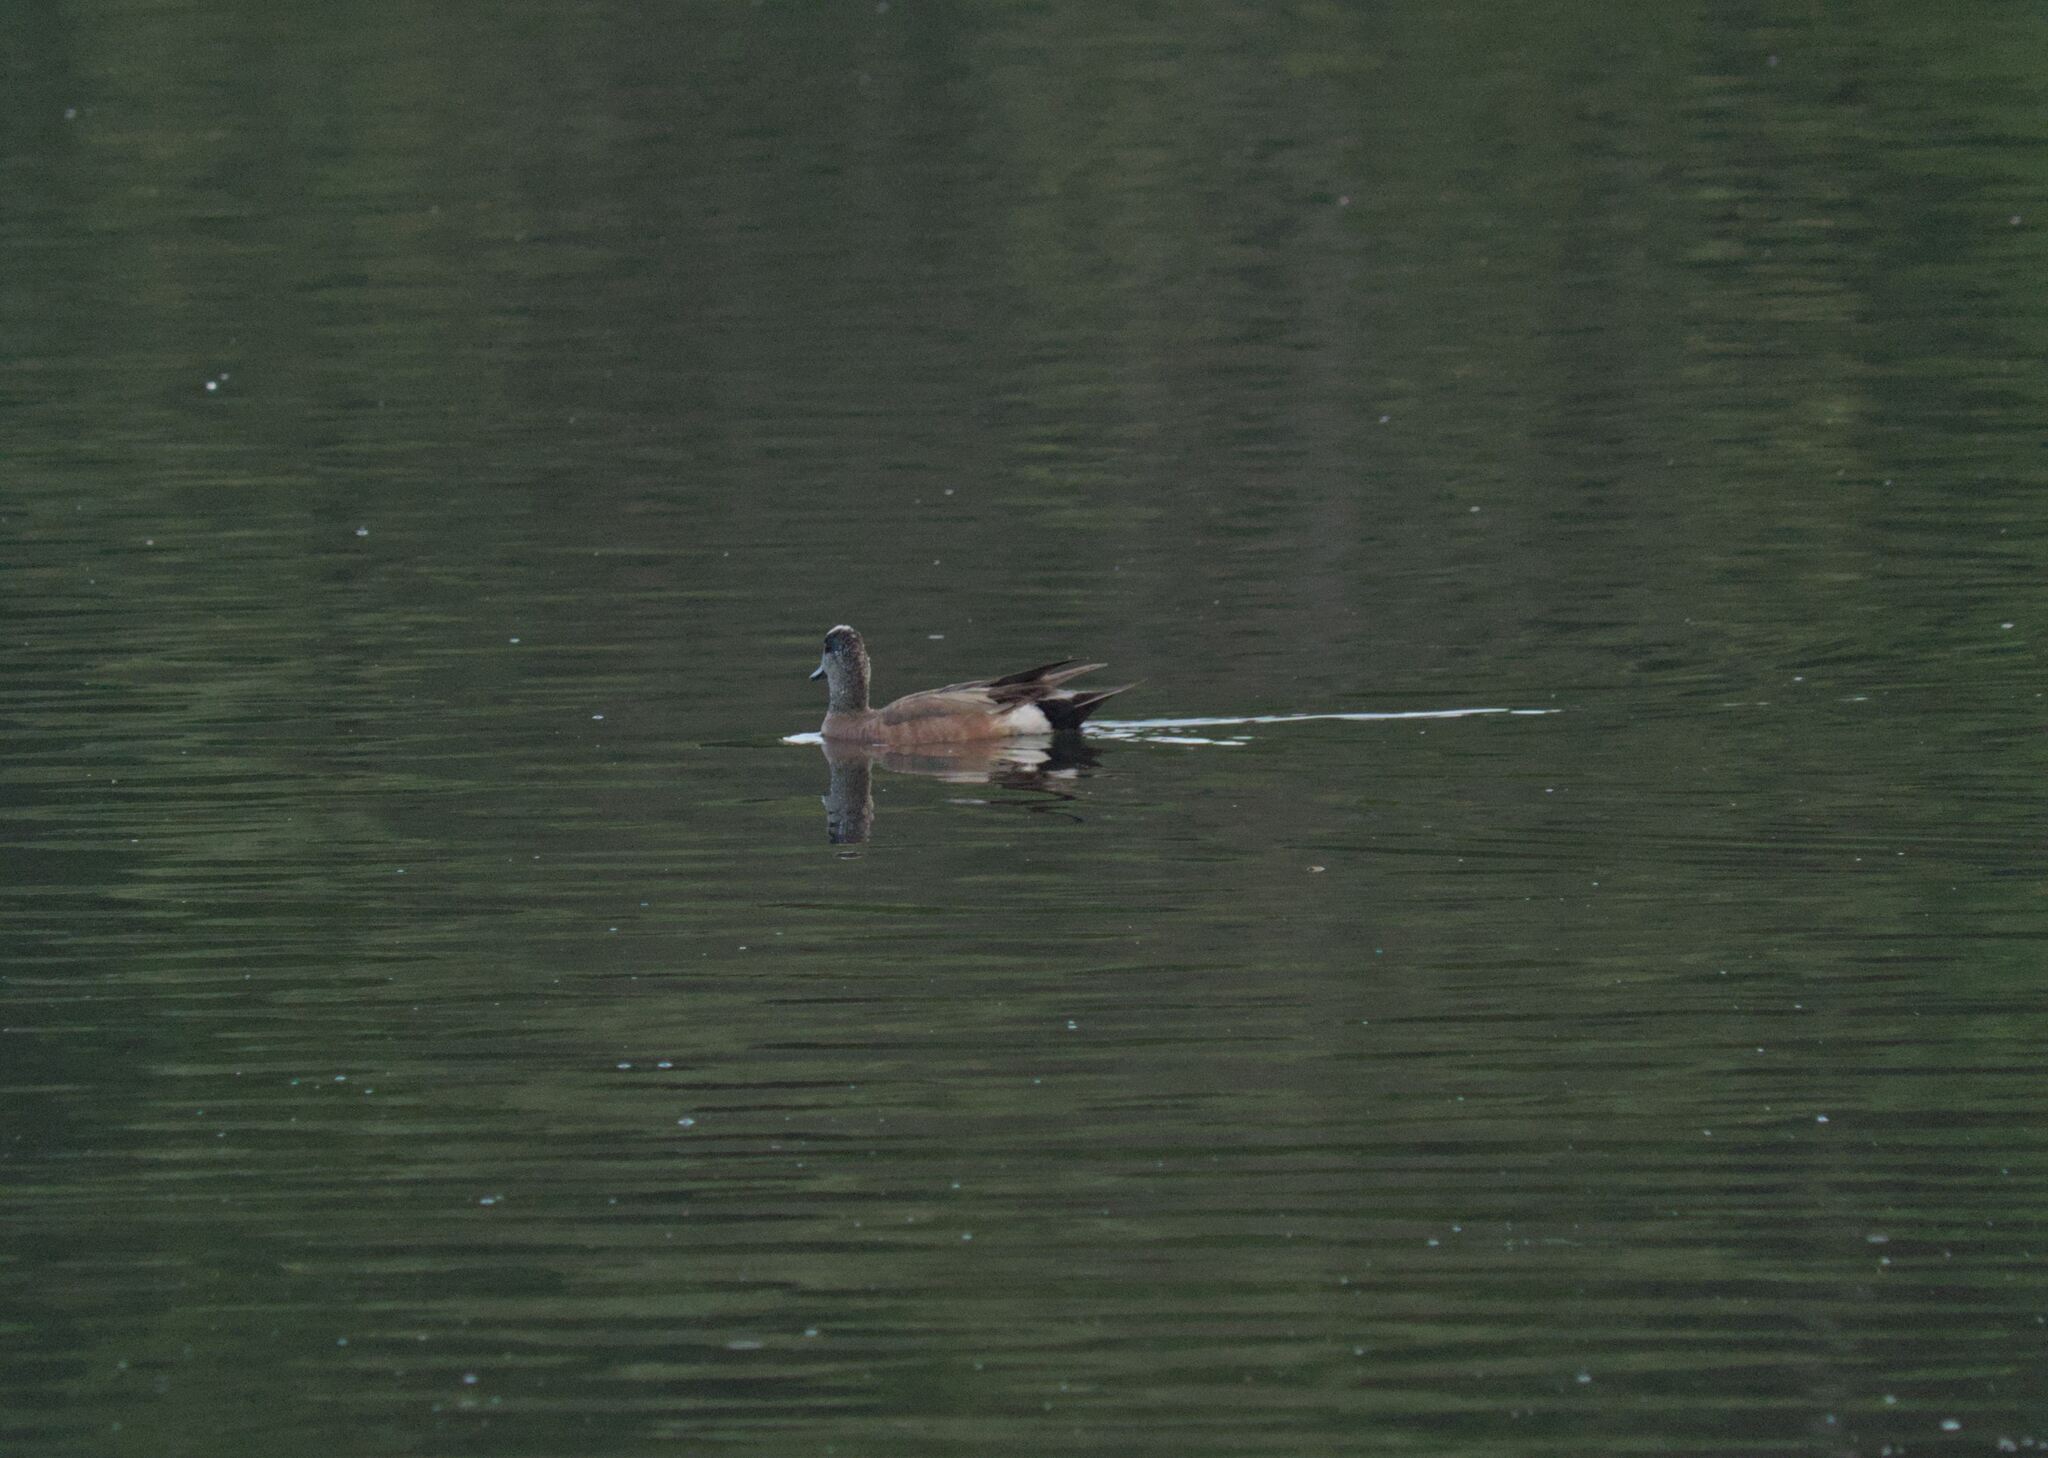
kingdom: Animalia
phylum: Chordata
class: Aves
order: Anseriformes
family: Anatidae
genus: Mareca
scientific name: Mareca americana
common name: American wigeon
